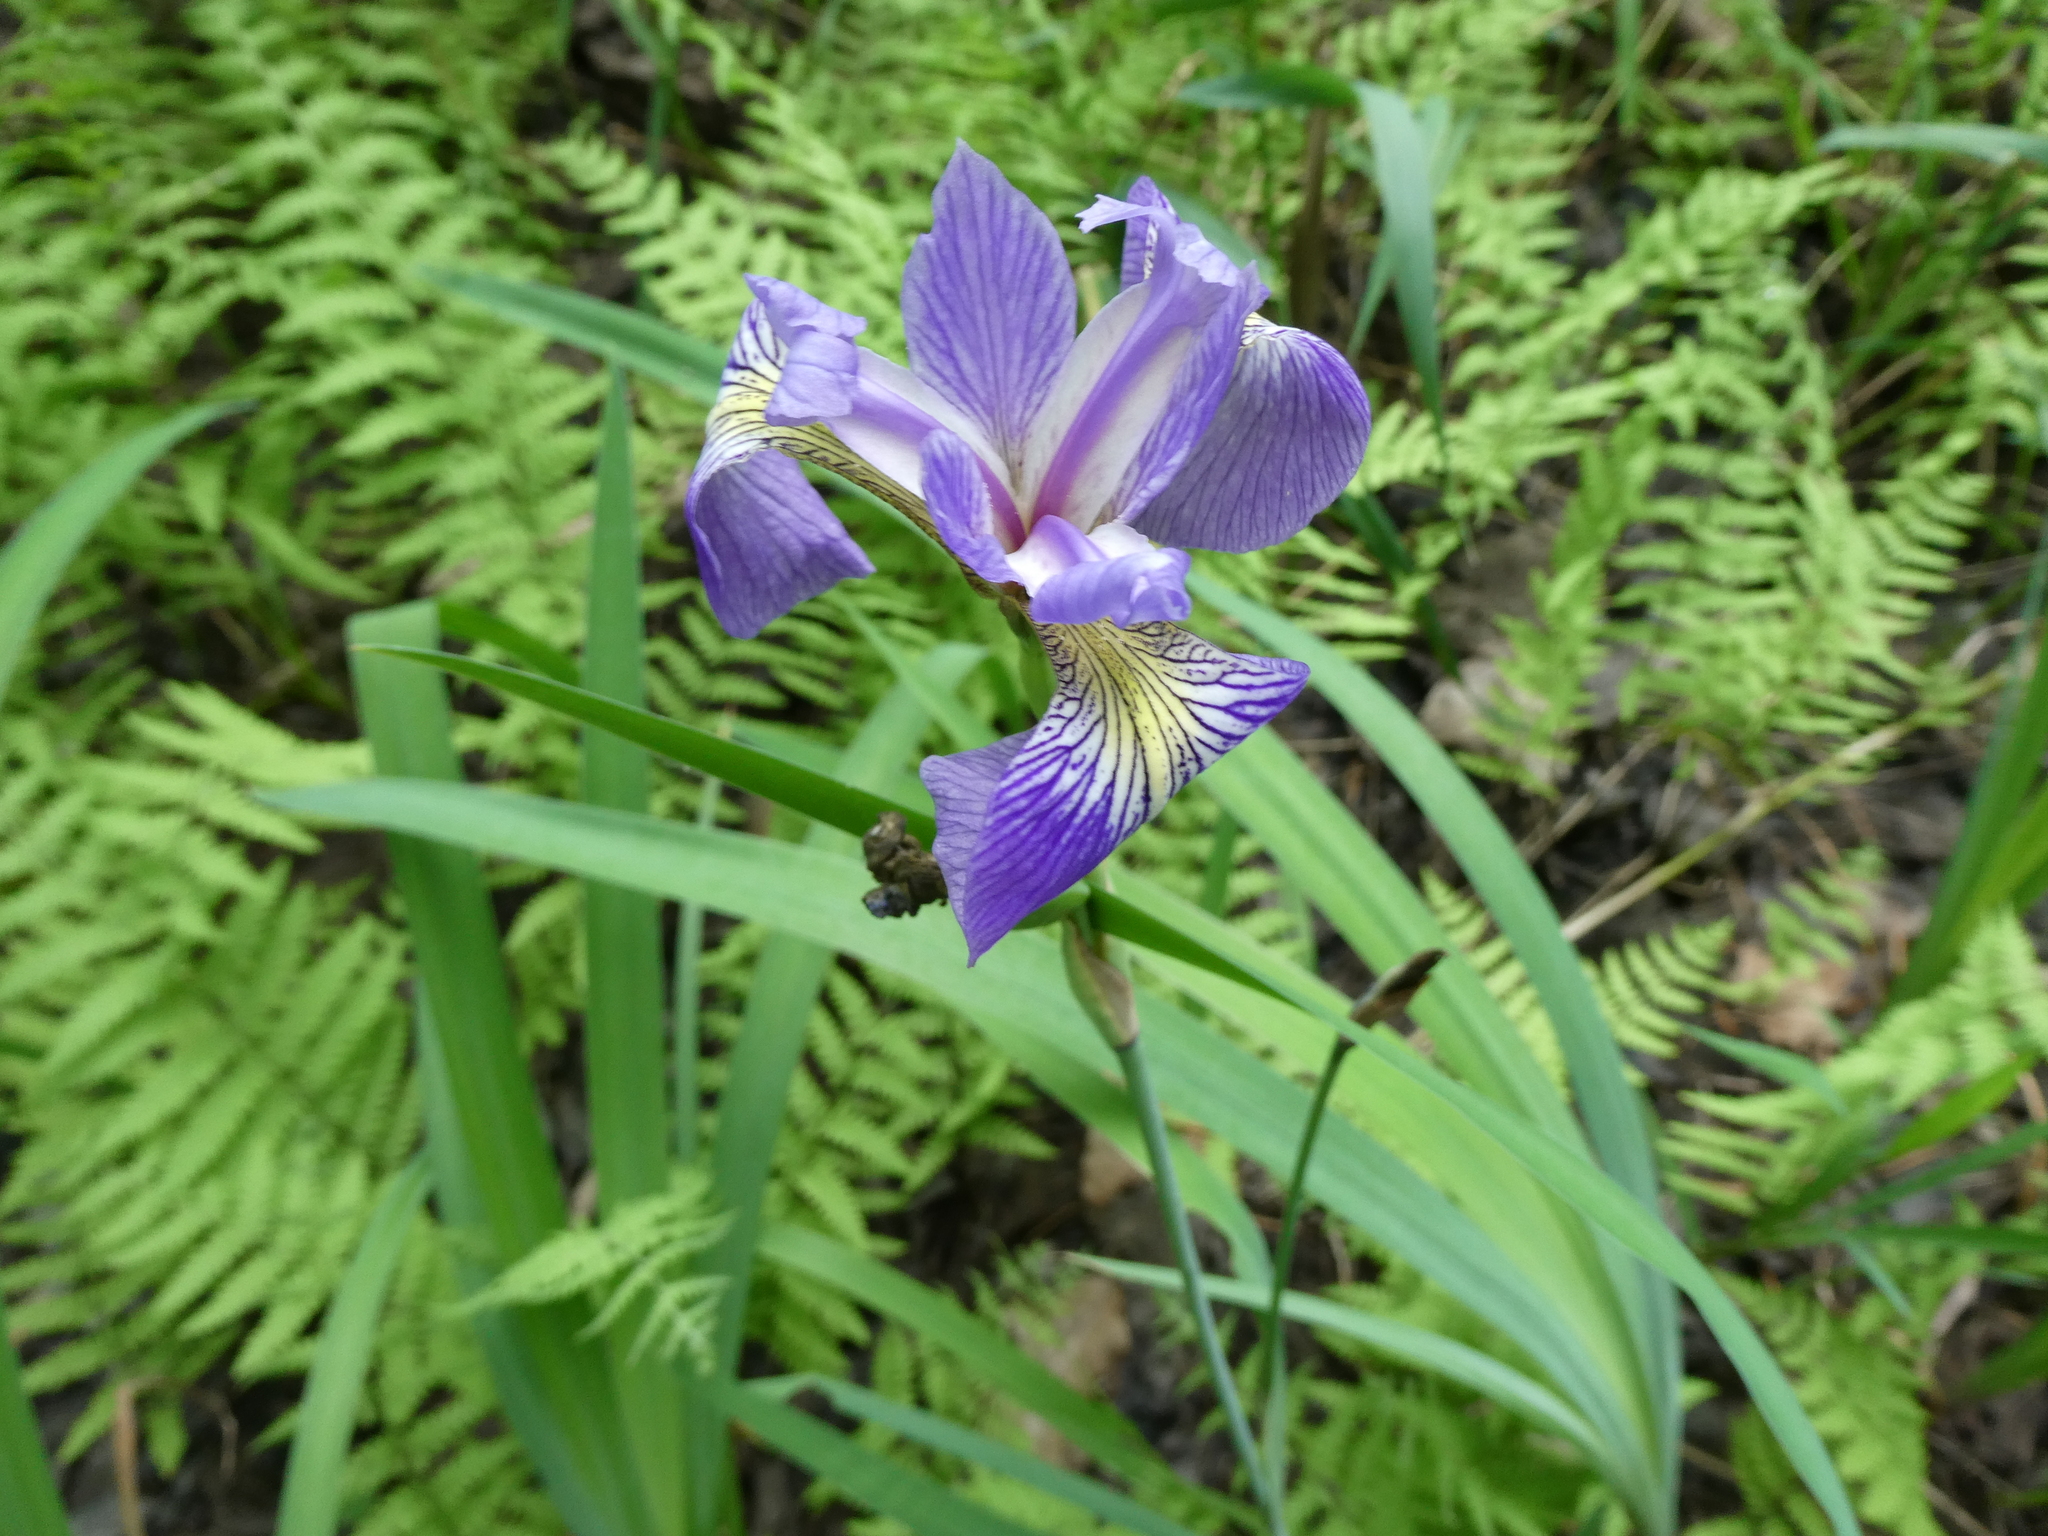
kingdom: Plantae
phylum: Tracheophyta
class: Liliopsida
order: Asparagales
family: Iridaceae
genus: Iris
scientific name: Iris versicolor
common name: Purple iris
